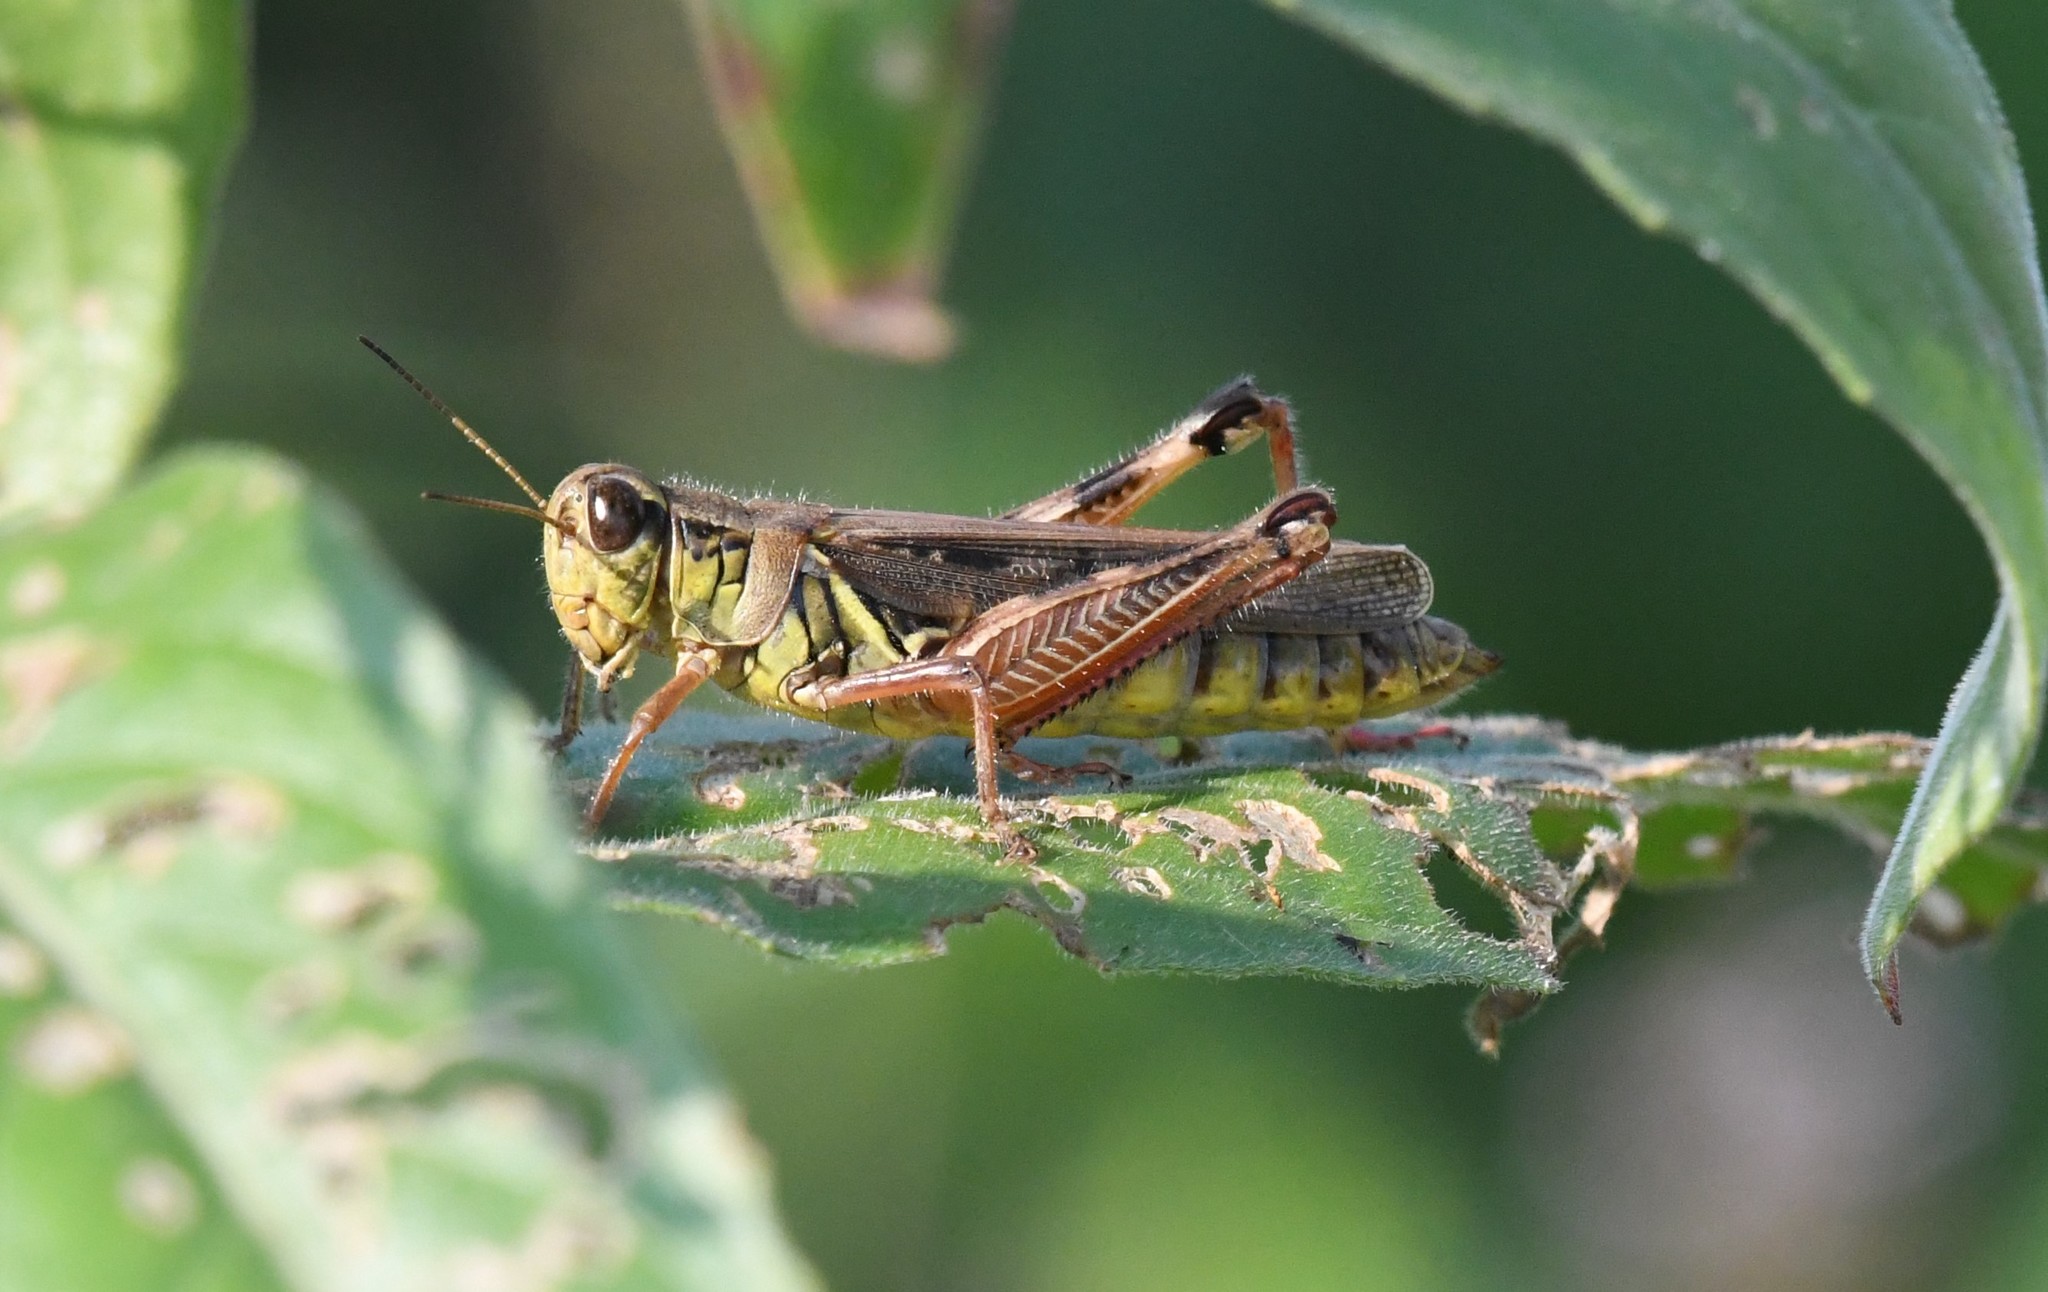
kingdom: Animalia
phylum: Arthropoda
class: Insecta
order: Orthoptera
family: Acrididae
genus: Melanoplus
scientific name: Melanoplus femurrubrum
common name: Red-legged grasshopper
